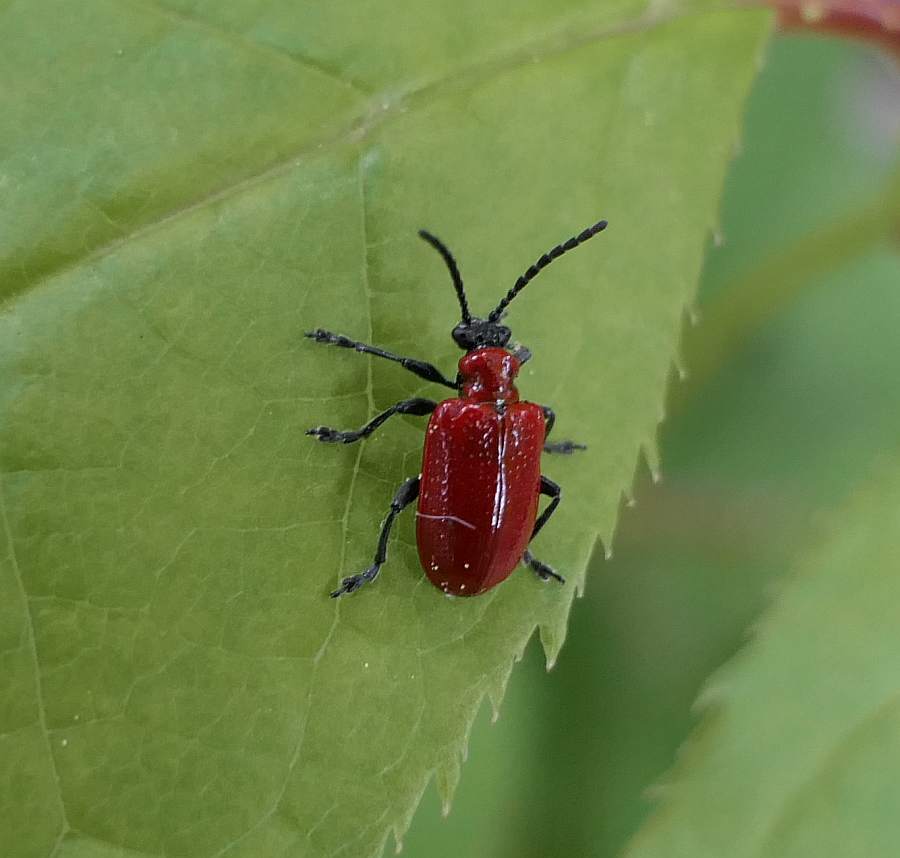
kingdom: Animalia
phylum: Arthropoda
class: Insecta
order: Coleoptera
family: Chrysomelidae
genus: Lilioceris
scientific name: Lilioceris lilii
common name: Lily beetle
